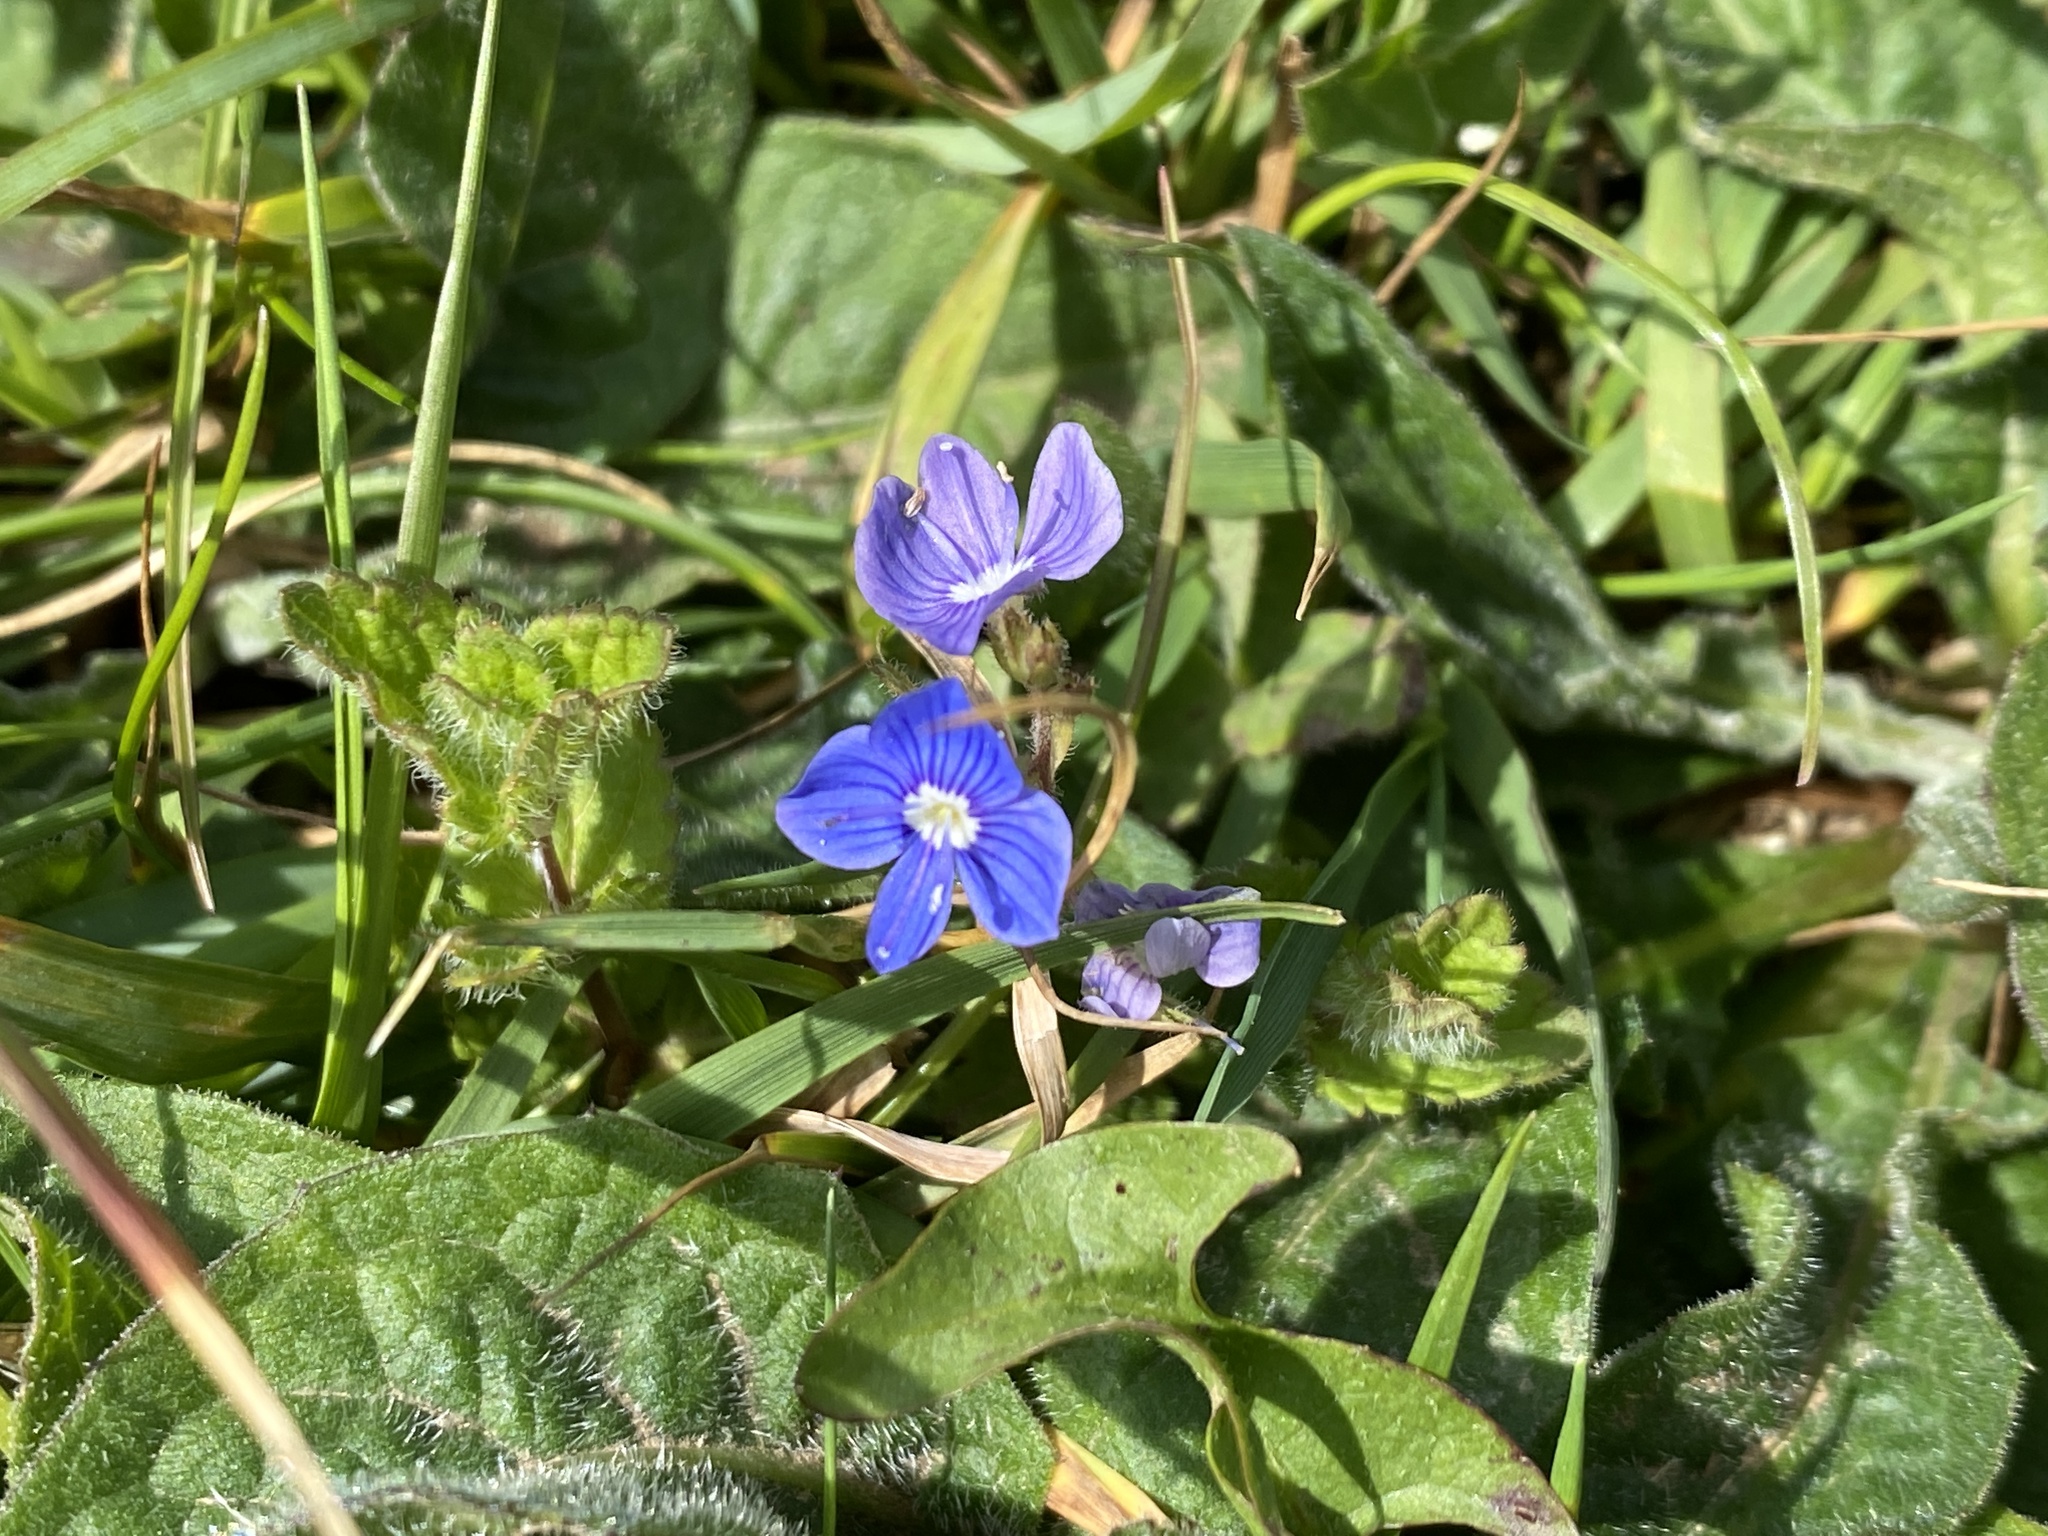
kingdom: Plantae
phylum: Tracheophyta
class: Magnoliopsida
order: Lamiales
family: Plantaginaceae
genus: Veronica
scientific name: Veronica chamaedrys
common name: Germander speedwell
